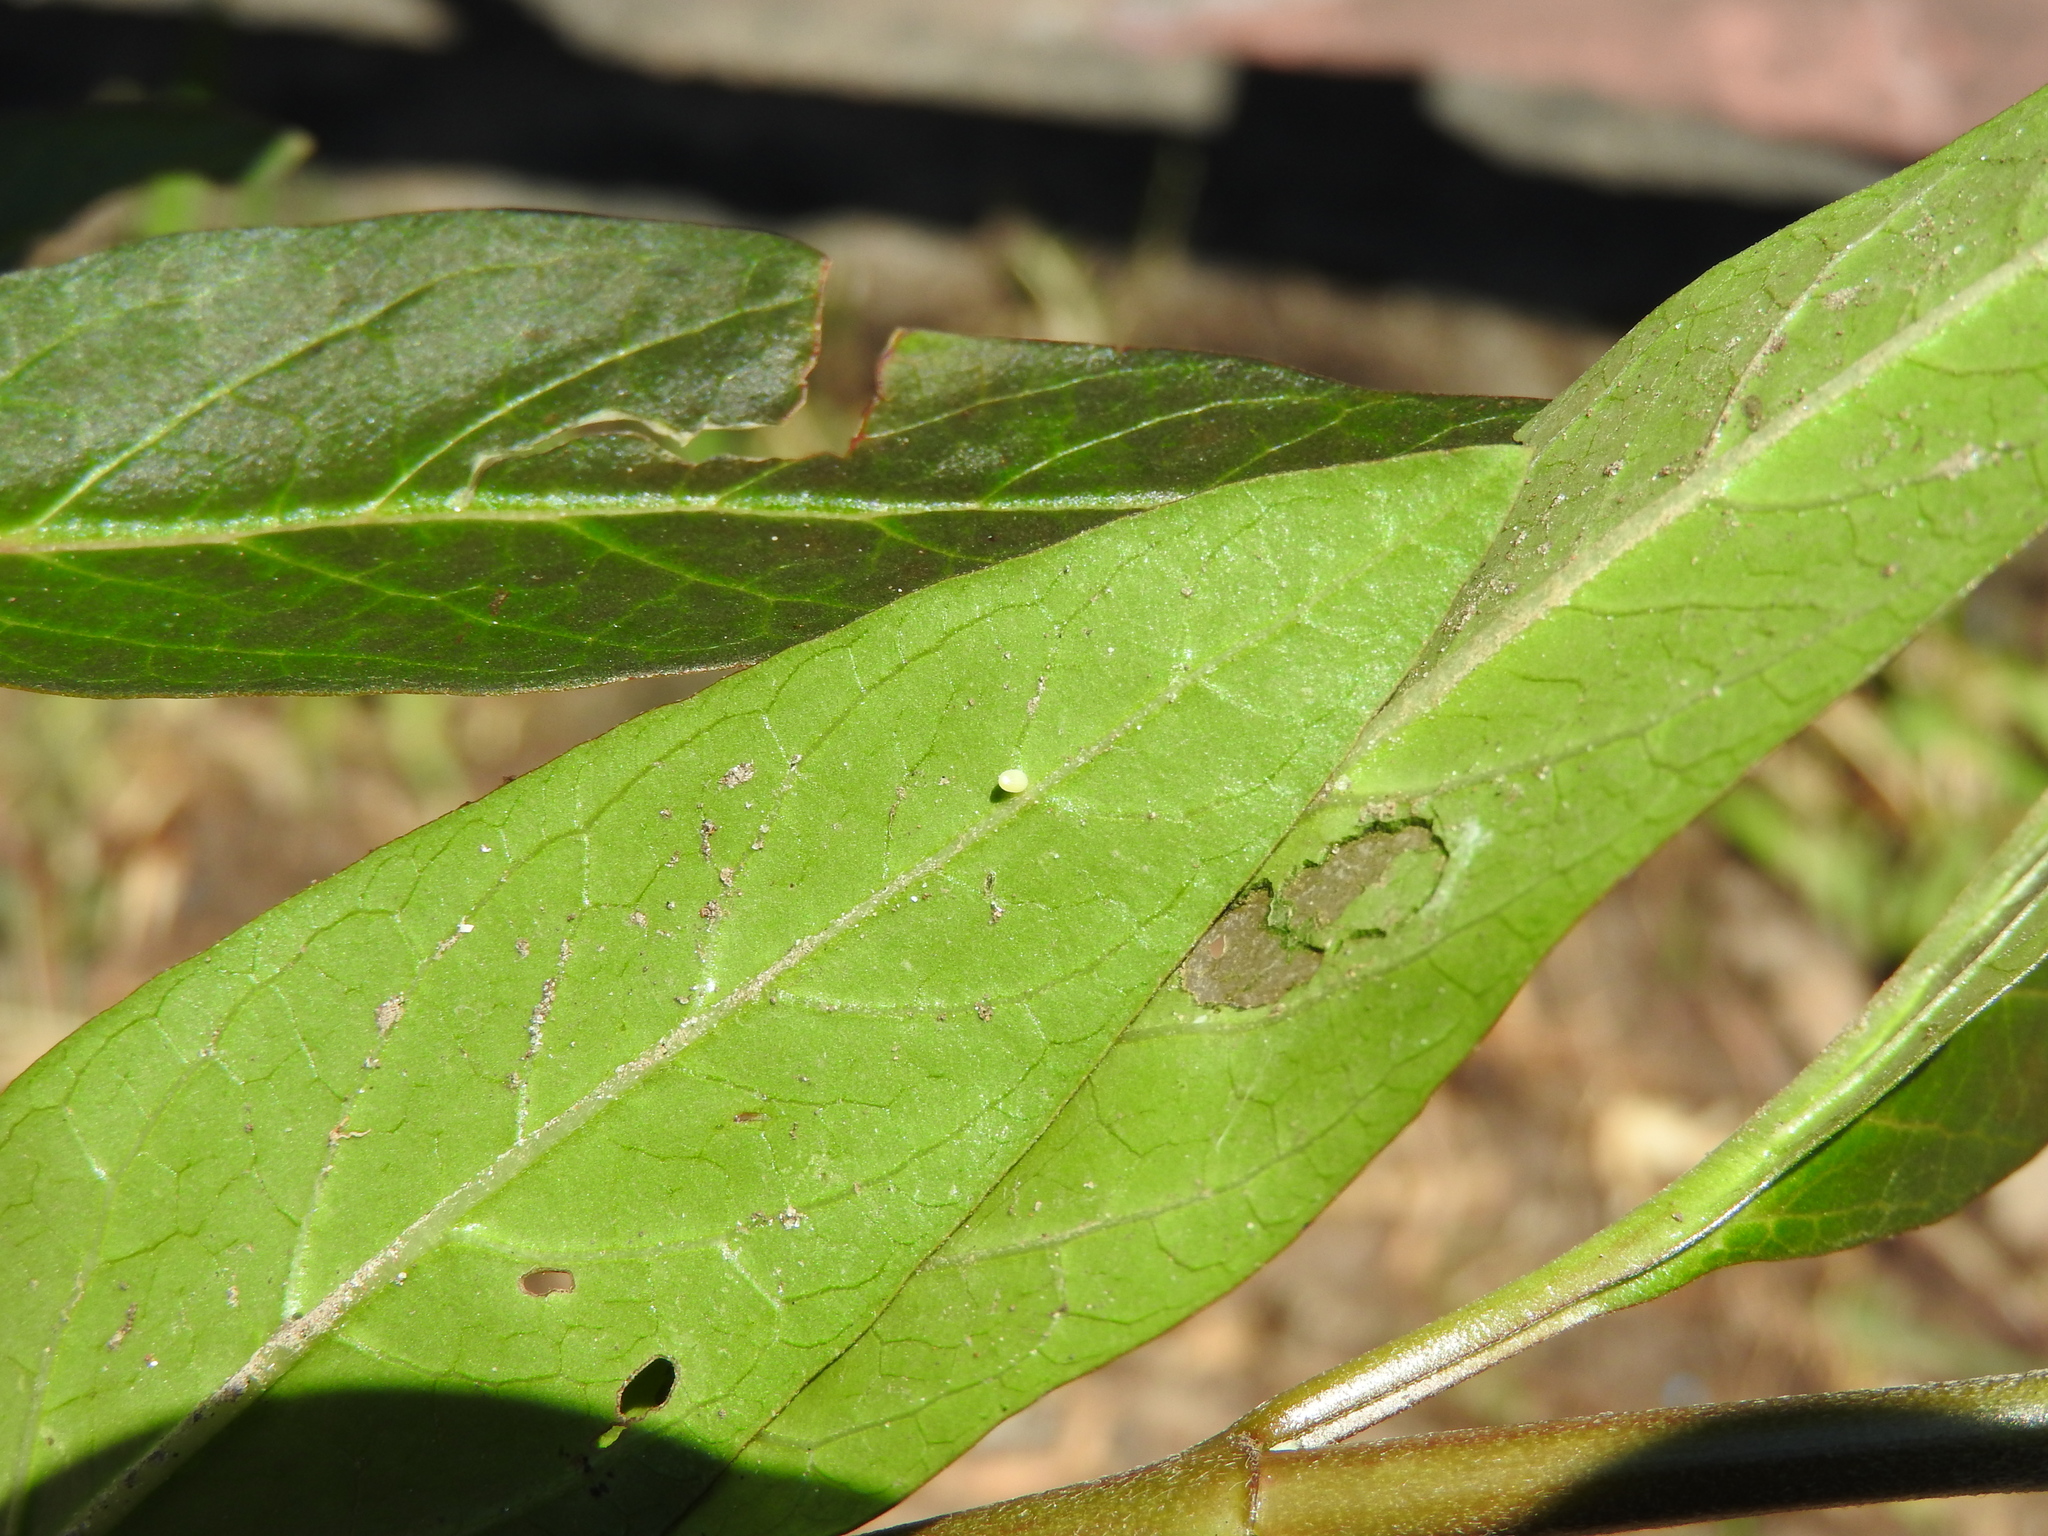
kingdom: Animalia
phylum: Arthropoda
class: Insecta
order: Lepidoptera
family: Nymphalidae
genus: Danaus
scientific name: Danaus plexippus
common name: Monarch
